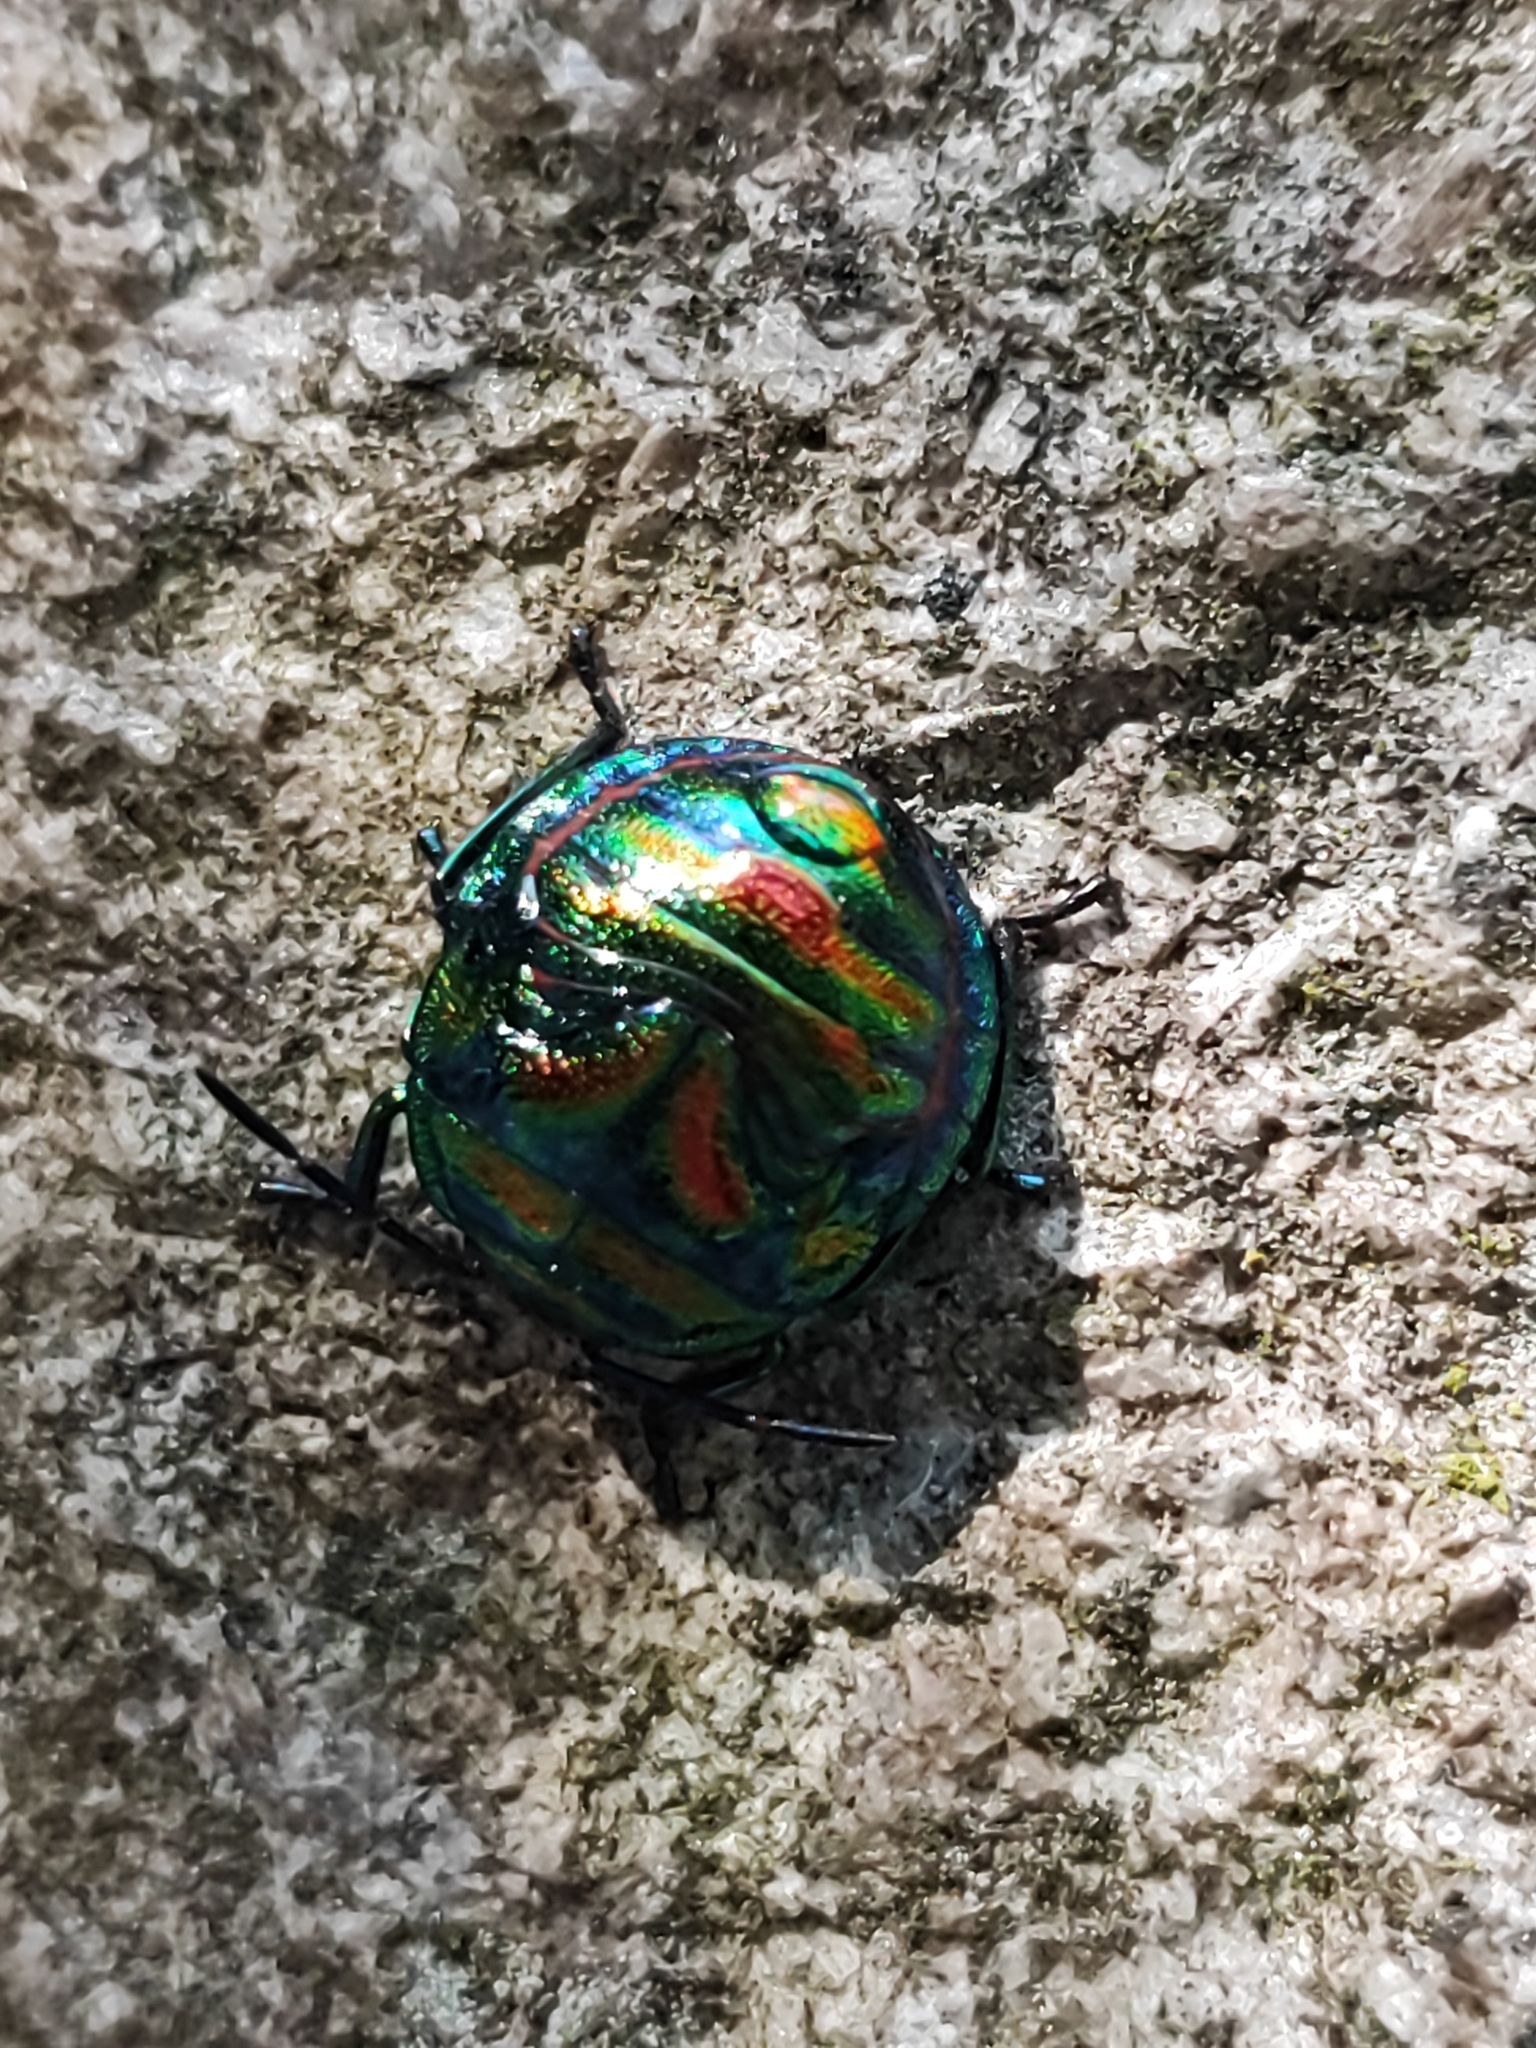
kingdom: Animalia
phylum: Arthropoda
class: Insecta
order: Hemiptera
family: Scutelleridae
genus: Poecilocoris
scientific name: Poecilocoris
